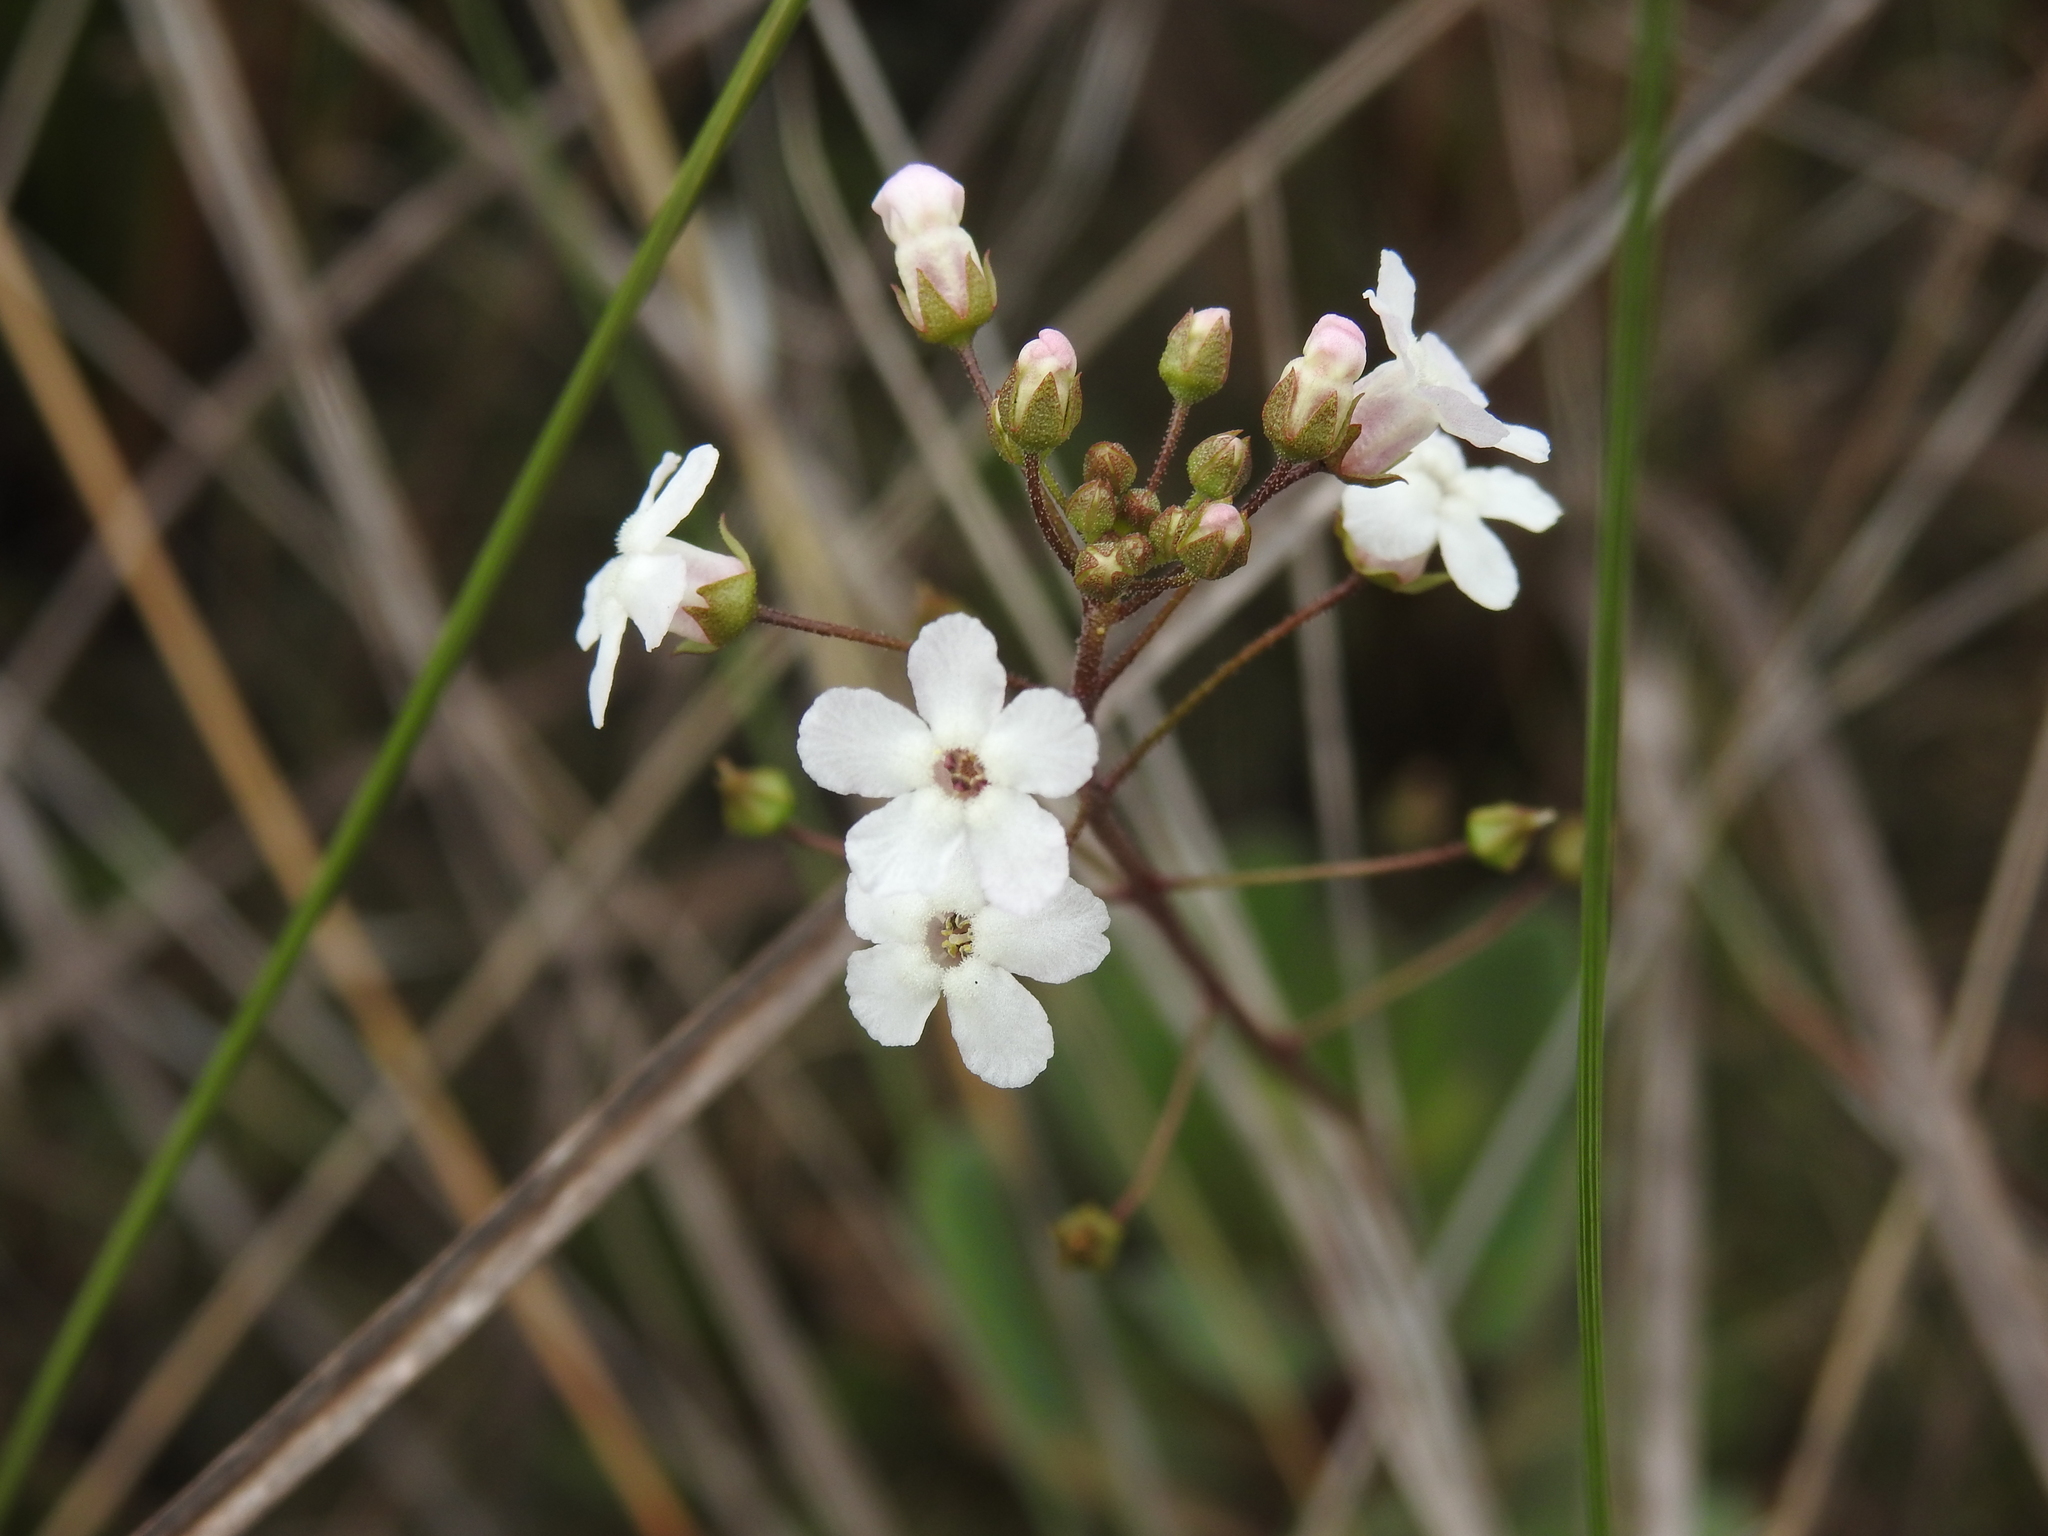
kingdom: Plantae
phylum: Tracheophyta
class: Magnoliopsida
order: Ericales
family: Primulaceae
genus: Samolus
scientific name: Samolus ebracteatus
